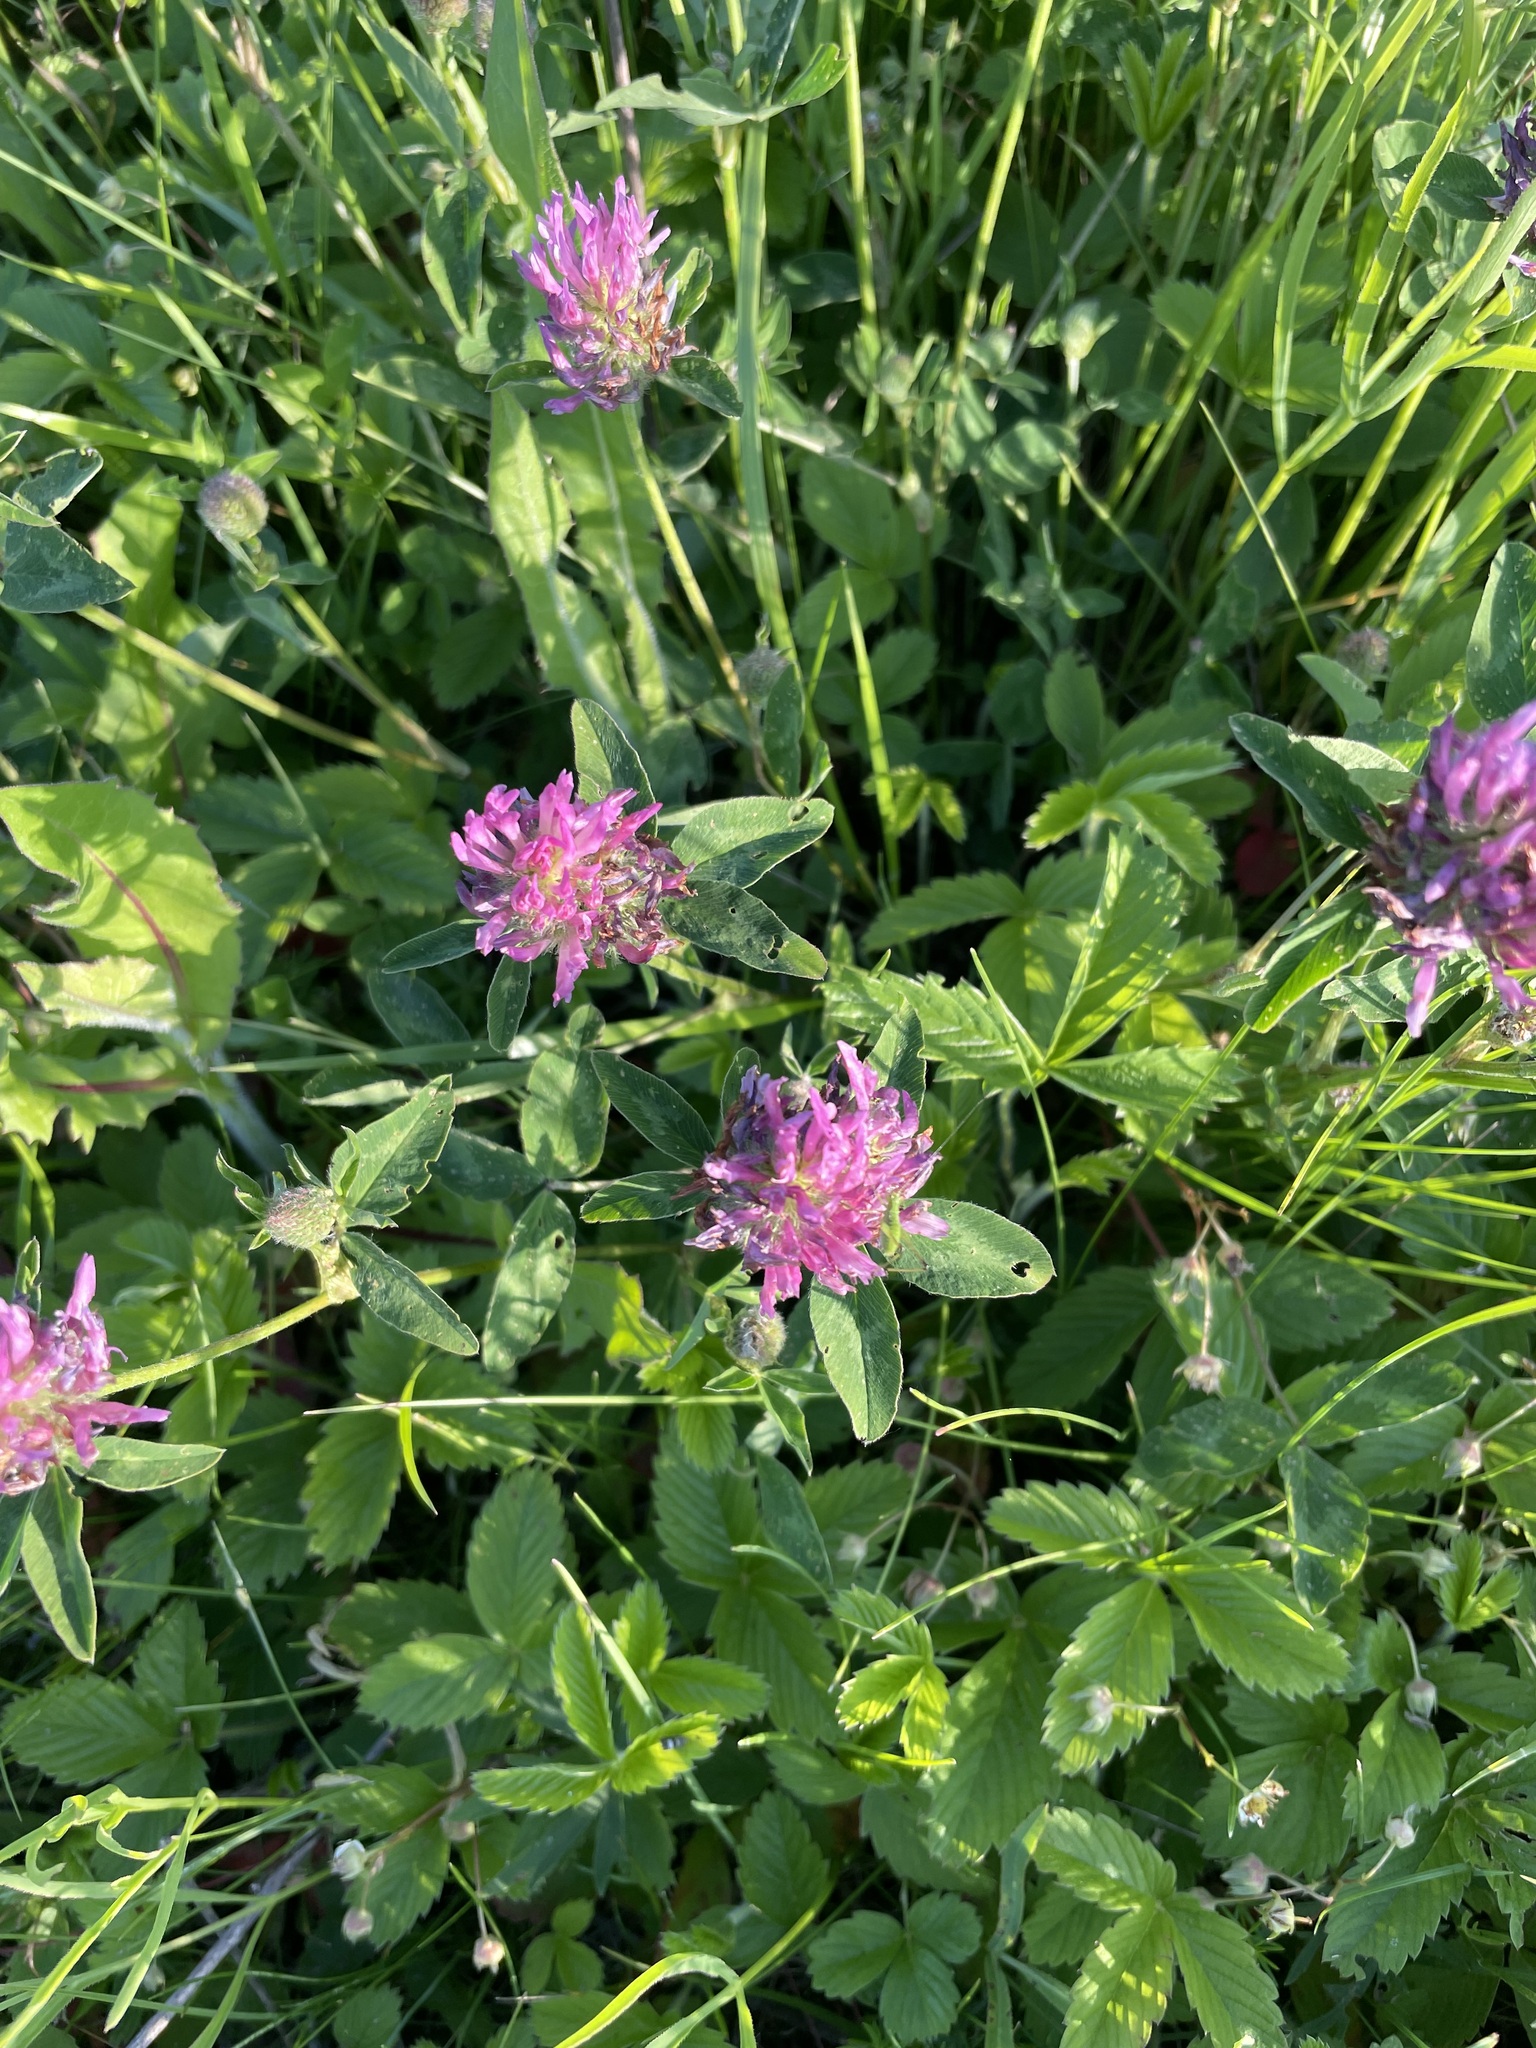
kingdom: Plantae
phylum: Tracheophyta
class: Magnoliopsida
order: Fabales
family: Fabaceae
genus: Trifolium
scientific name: Trifolium pratense
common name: Red clover
